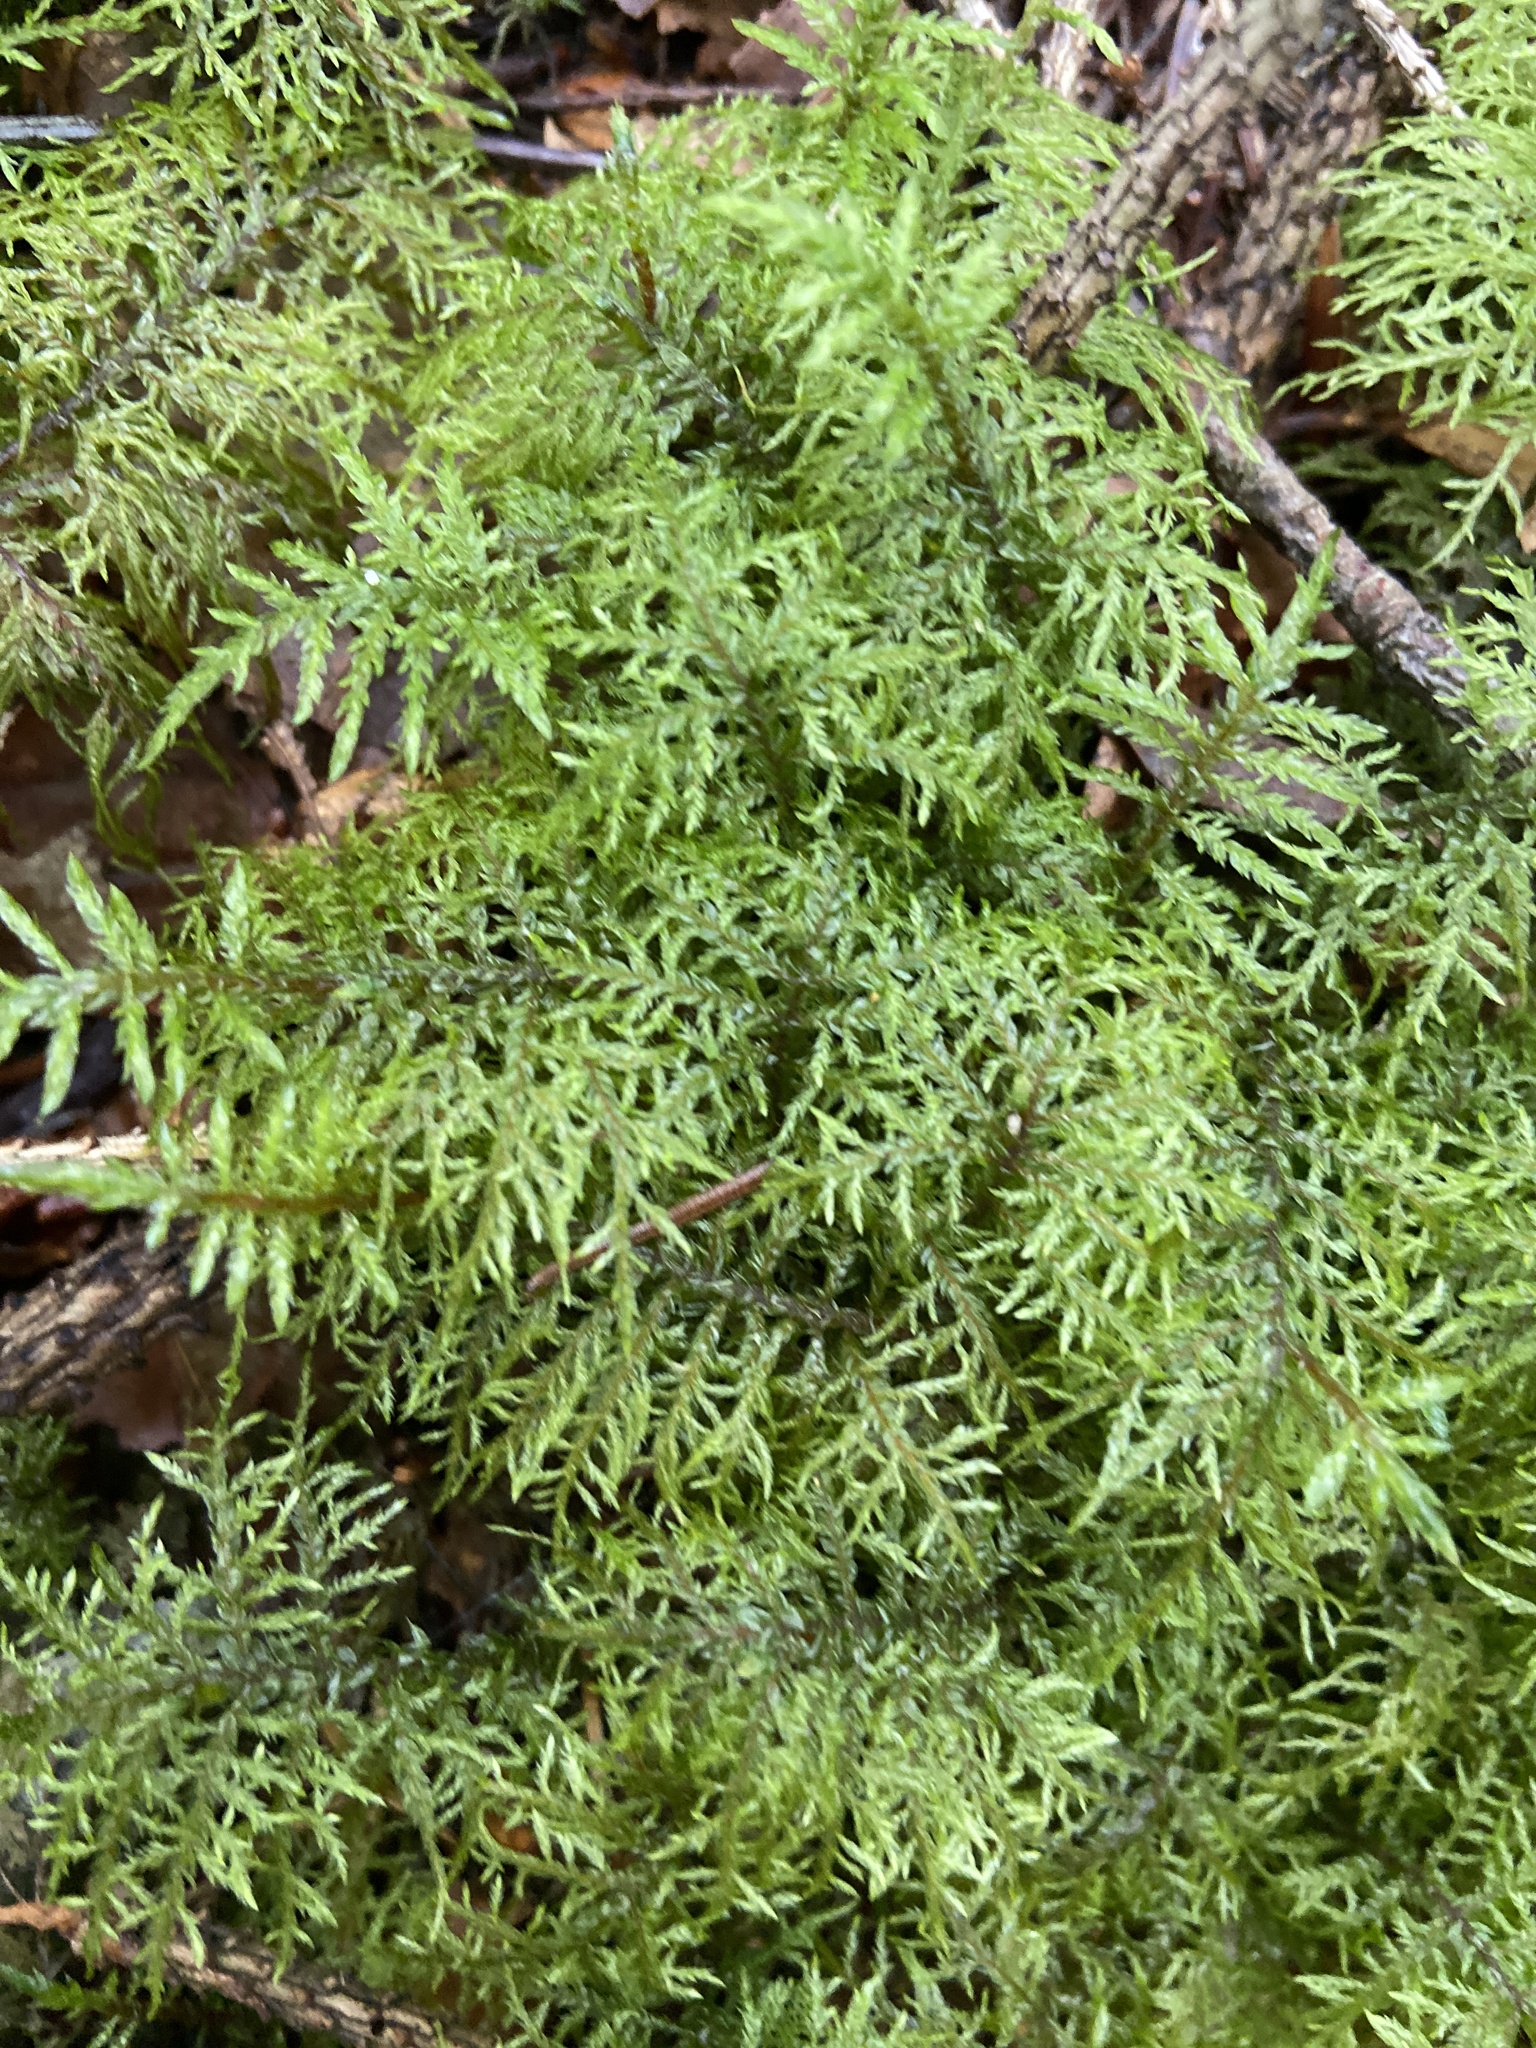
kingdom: Plantae
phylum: Bryophyta
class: Bryopsida
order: Hypnales
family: Hylocomiaceae
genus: Hylocomium
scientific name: Hylocomium splendens
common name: Stairstep moss
